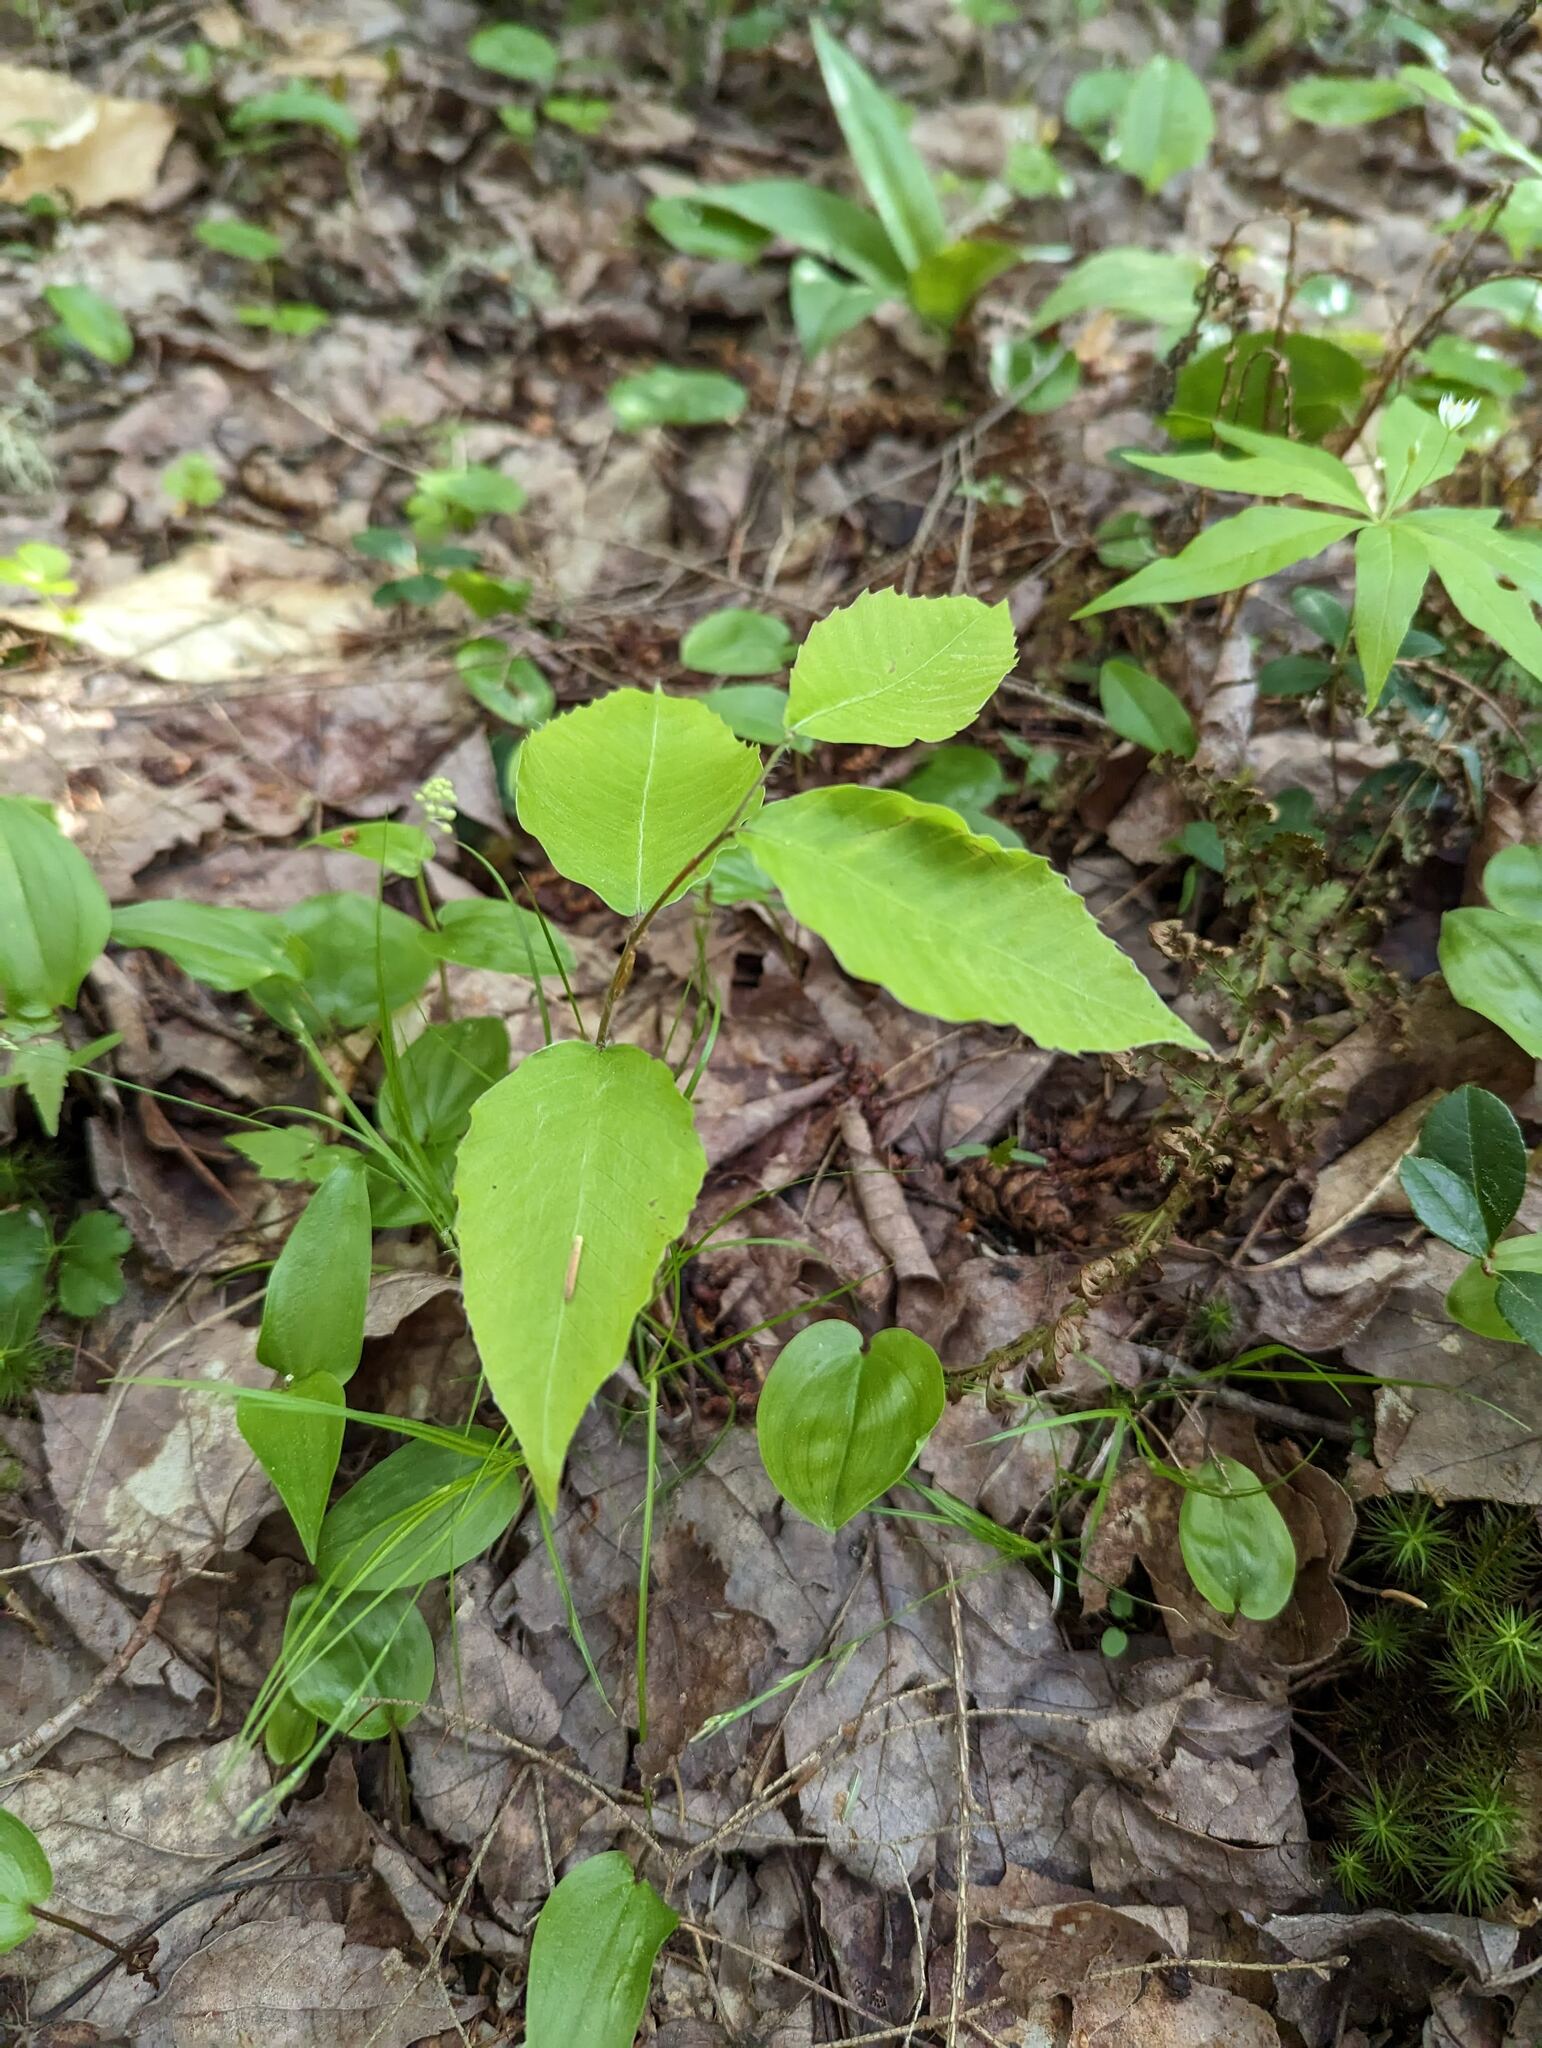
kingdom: Plantae
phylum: Tracheophyta
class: Magnoliopsida
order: Fagales
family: Fagaceae
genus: Fagus
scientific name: Fagus grandifolia
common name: American beech
